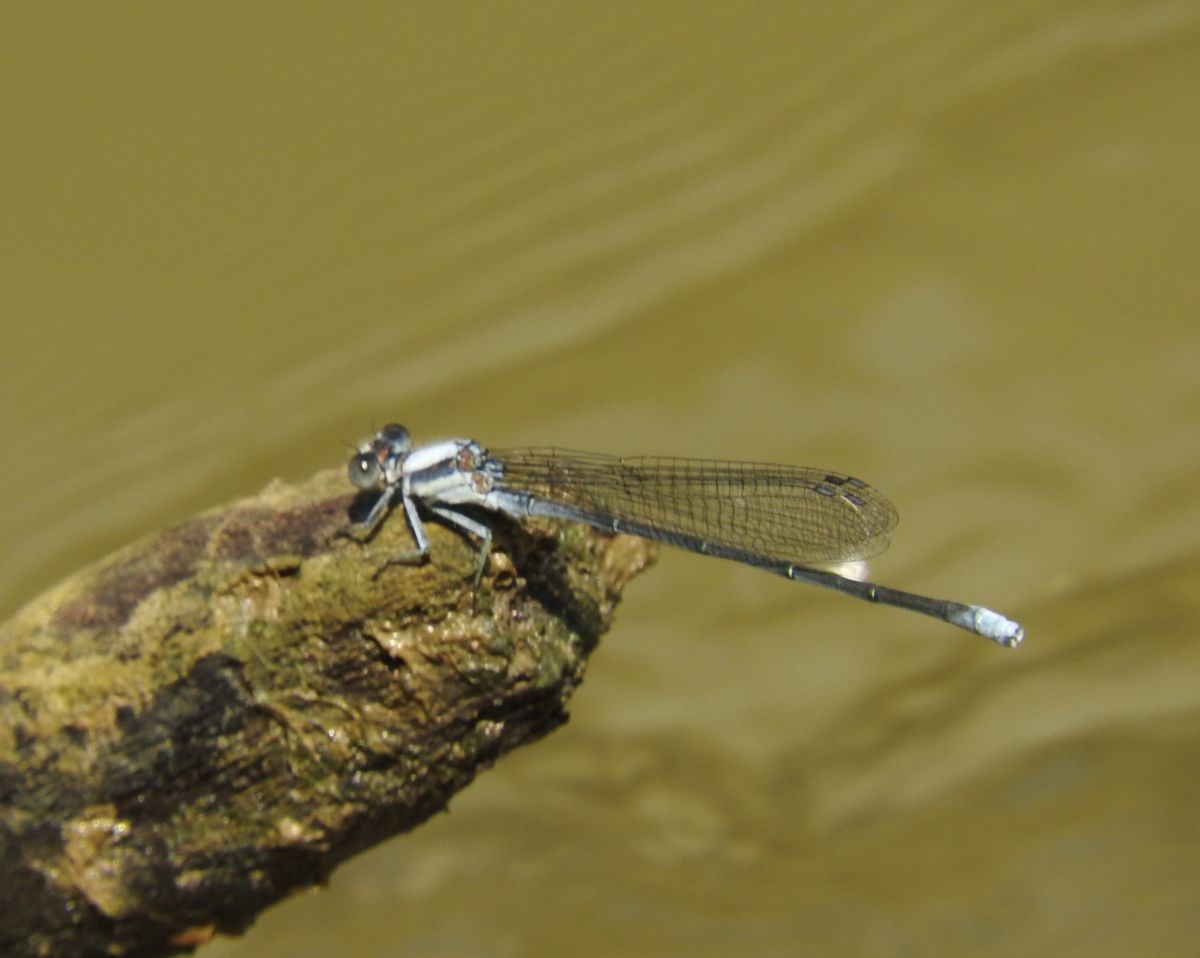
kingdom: Animalia
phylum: Arthropoda
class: Insecta
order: Odonata
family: Coenagrionidae
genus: Argia
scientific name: Argia moesta
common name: Powdered dancer
